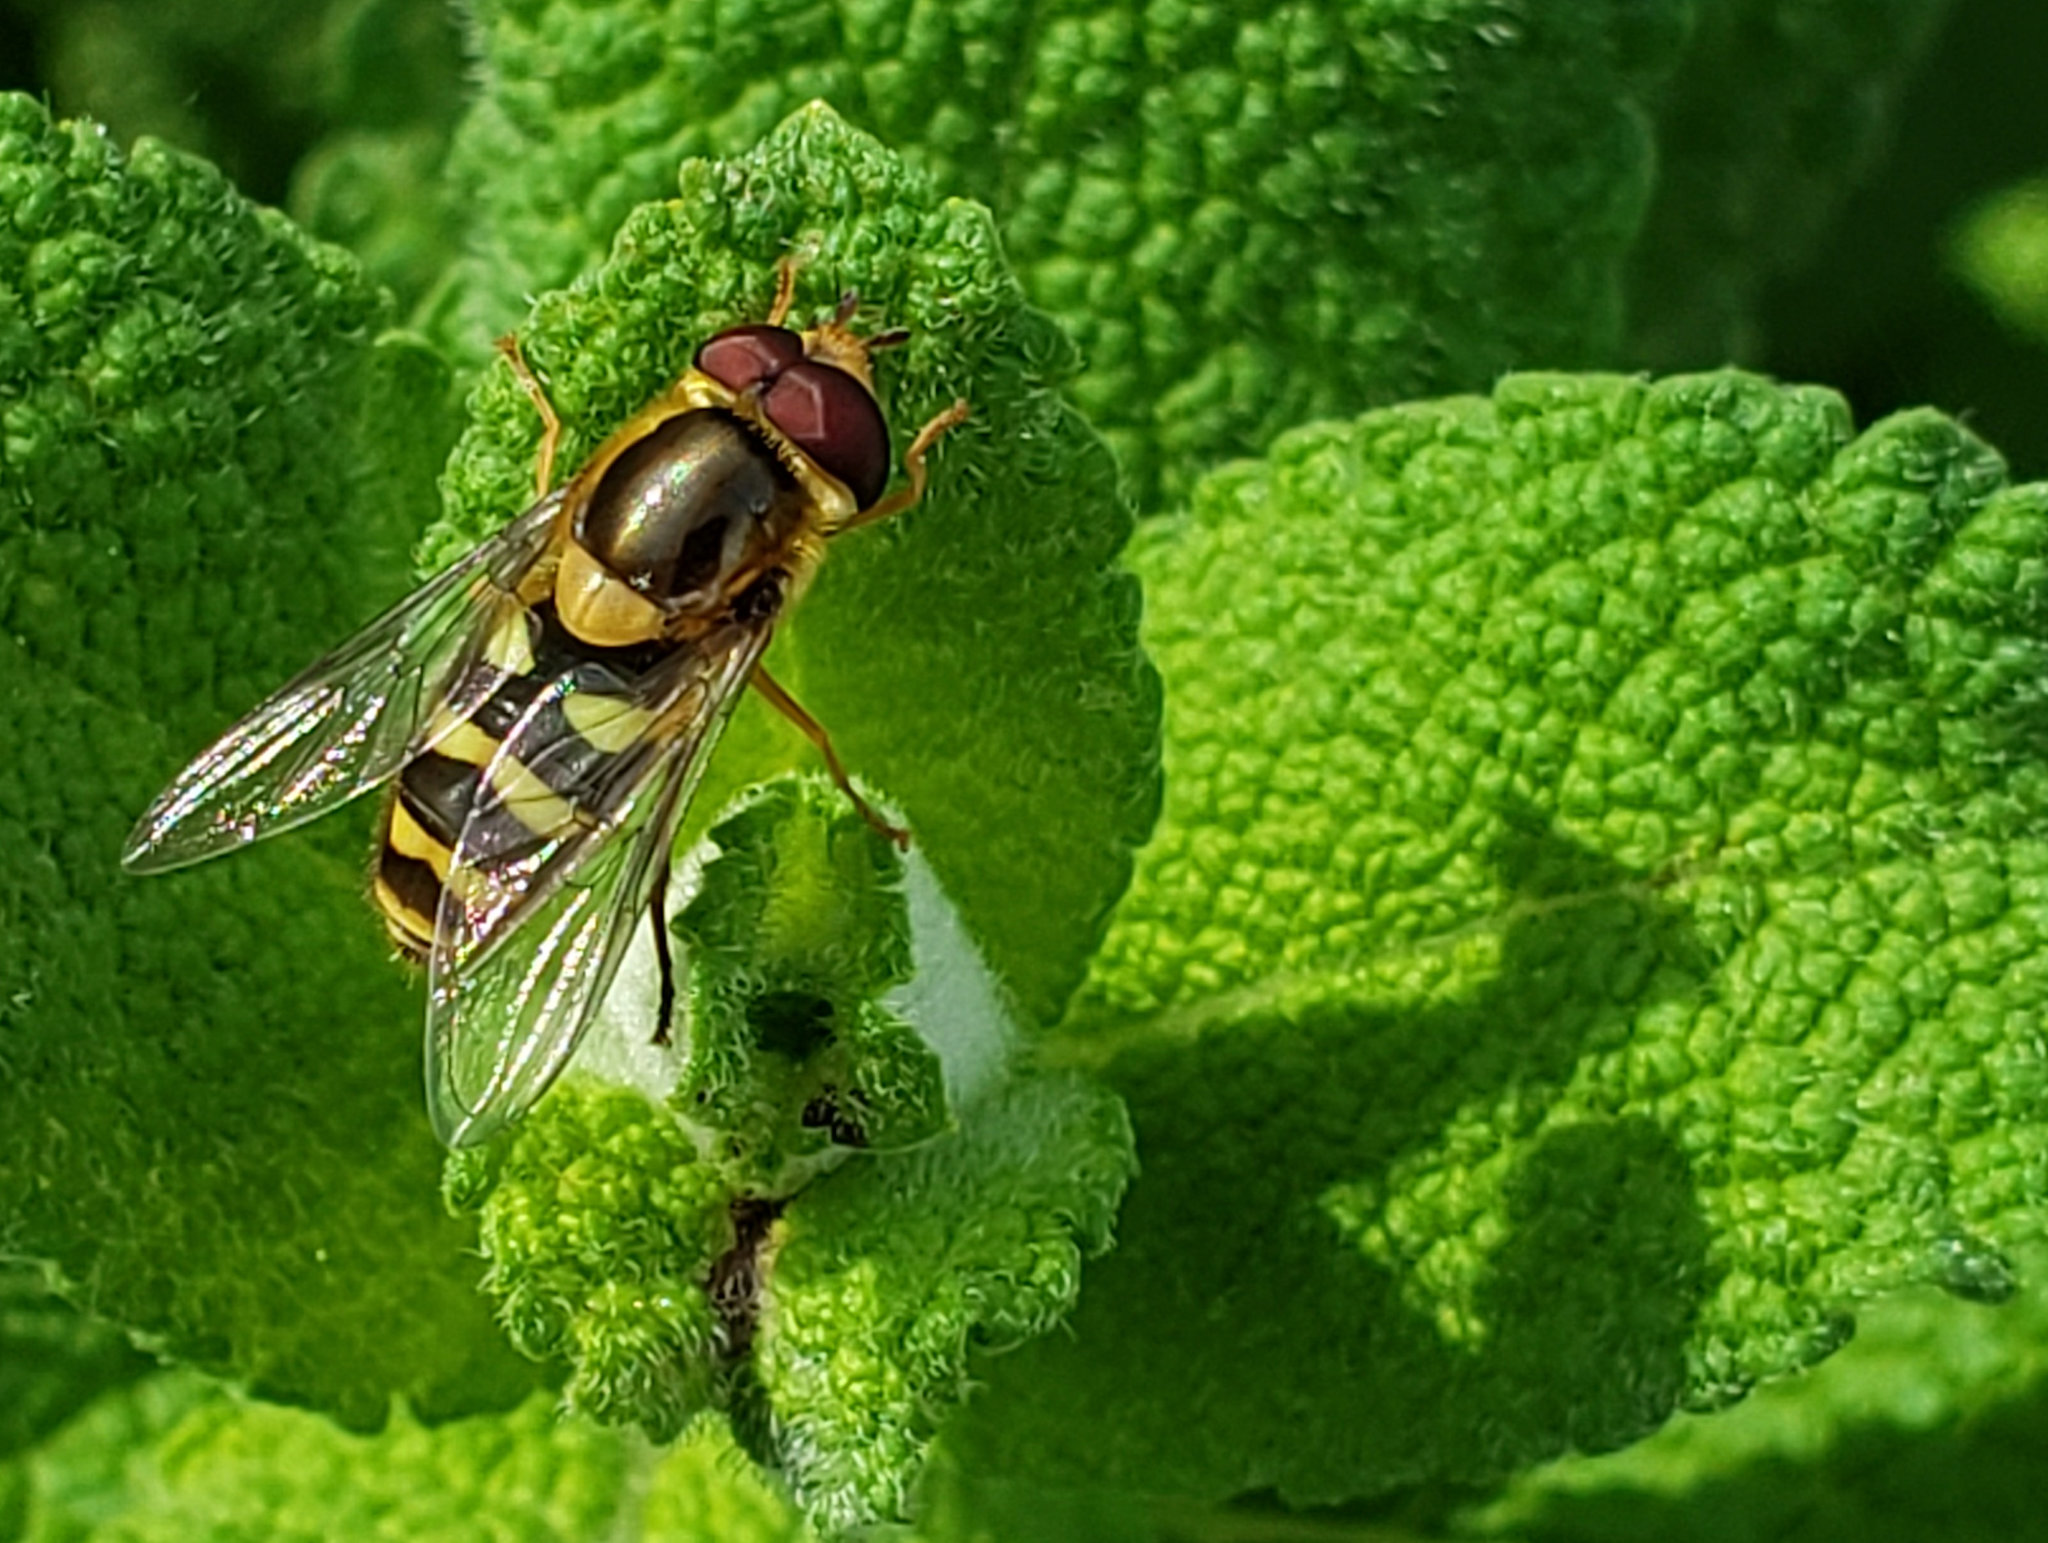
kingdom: Animalia
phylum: Arthropoda
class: Insecta
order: Diptera
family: Syrphidae
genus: Syrphus
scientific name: Syrphus opinator
